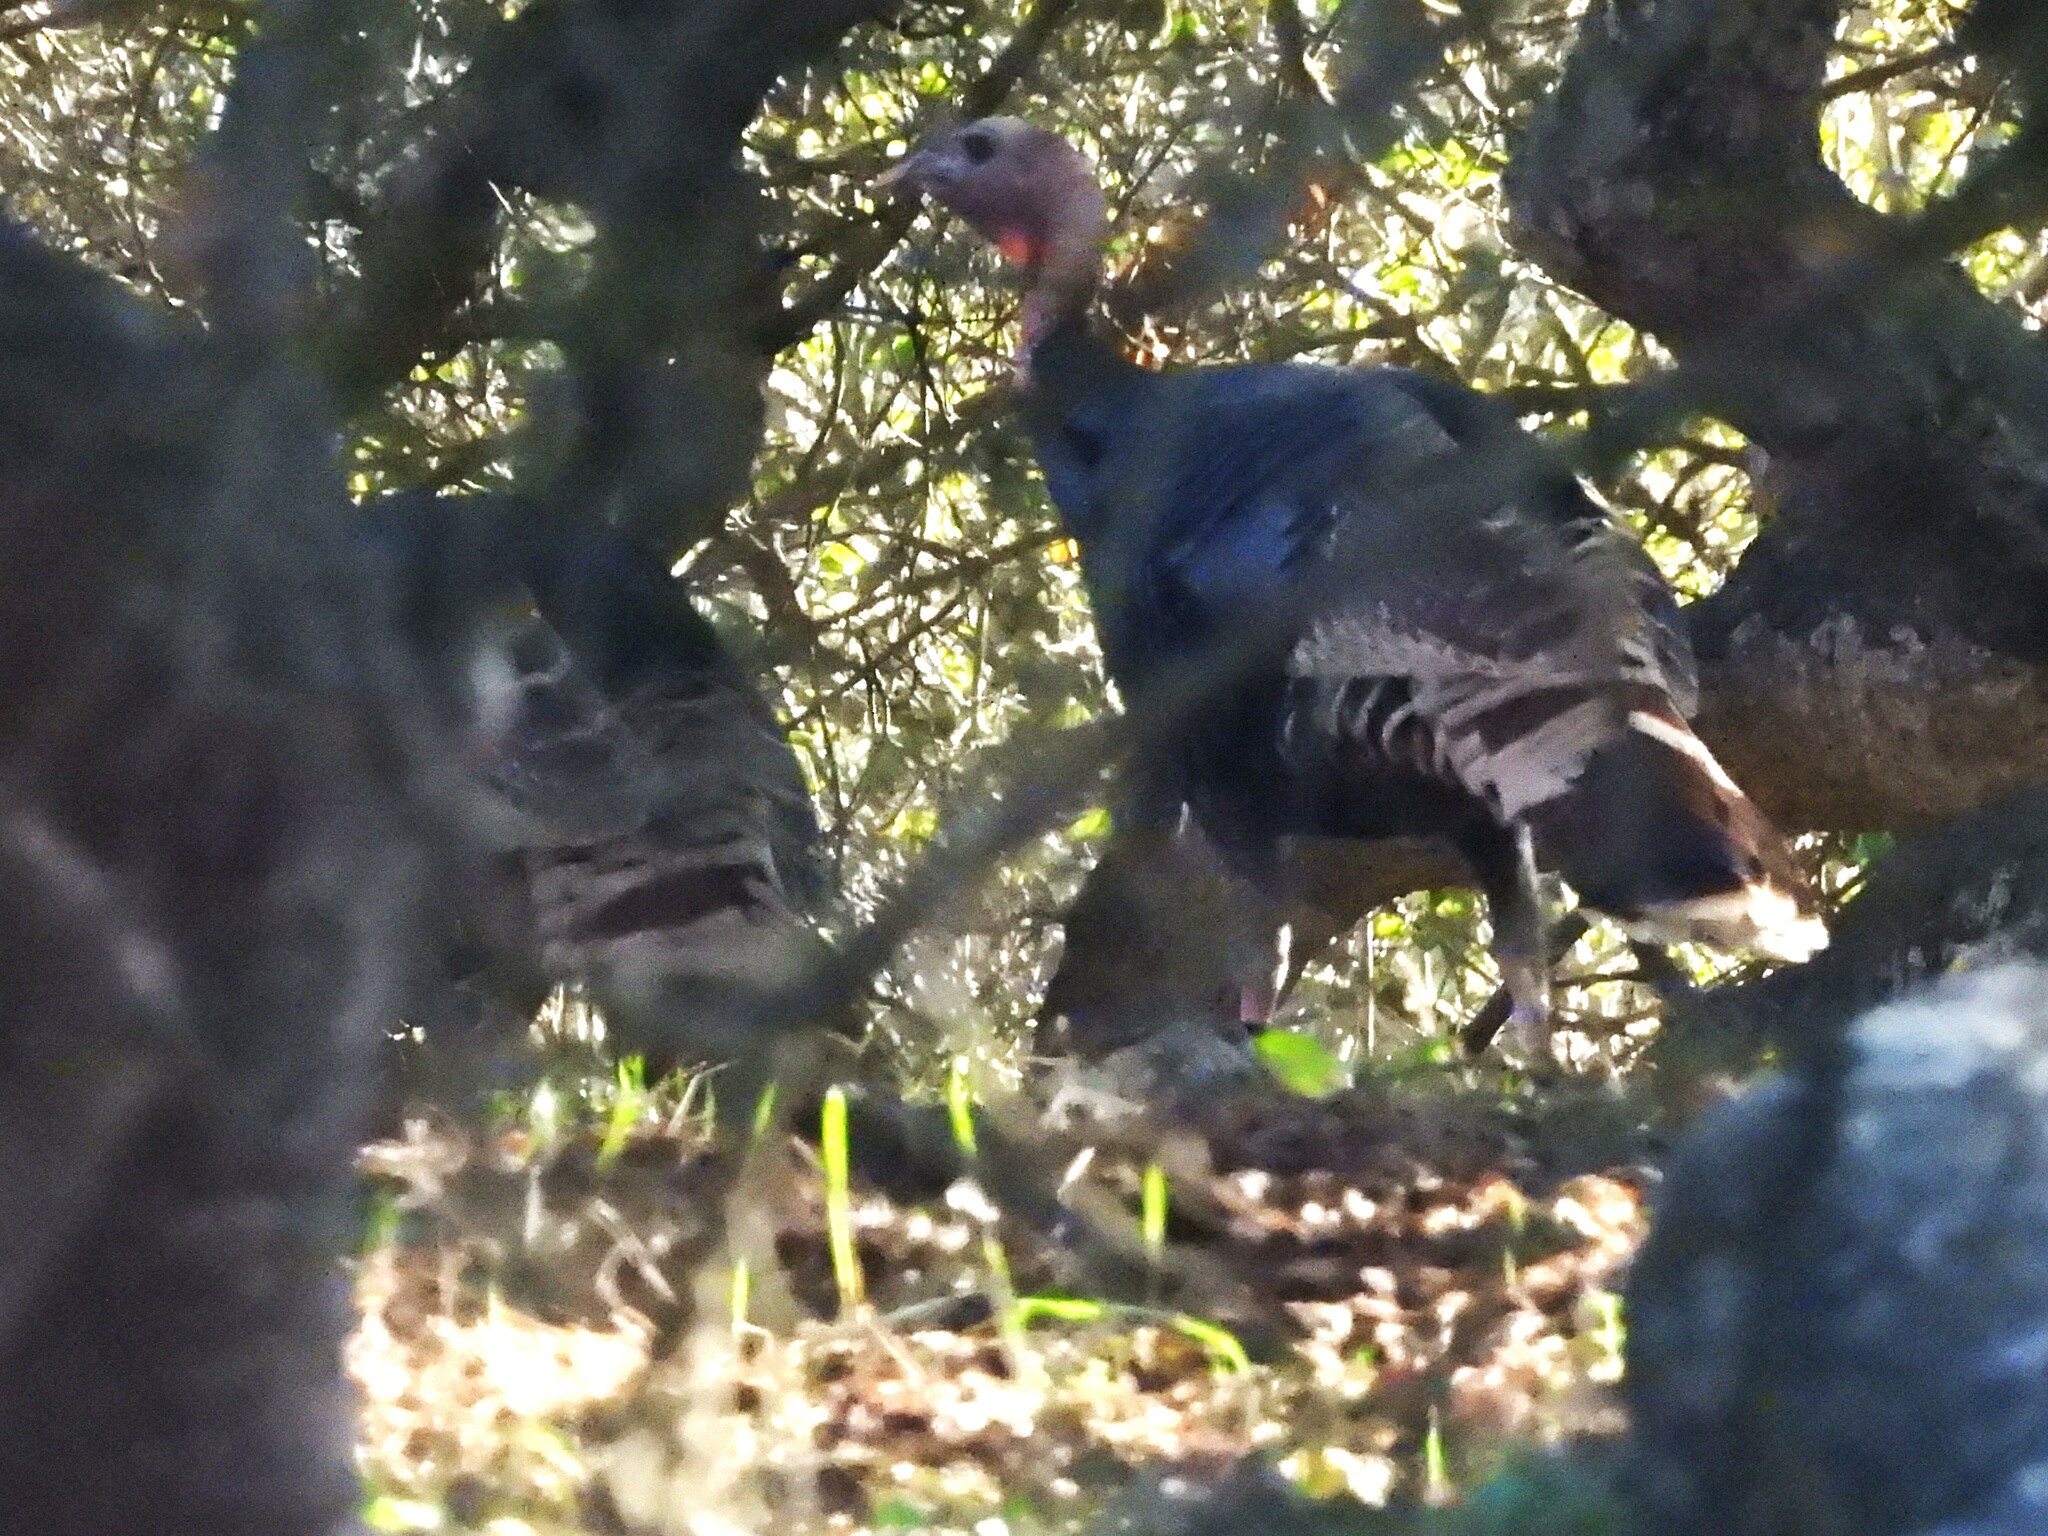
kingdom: Animalia
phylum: Chordata
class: Aves
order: Galliformes
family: Phasianidae
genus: Meleagris
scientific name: Meleagris gallopavo
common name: Wild turkey
